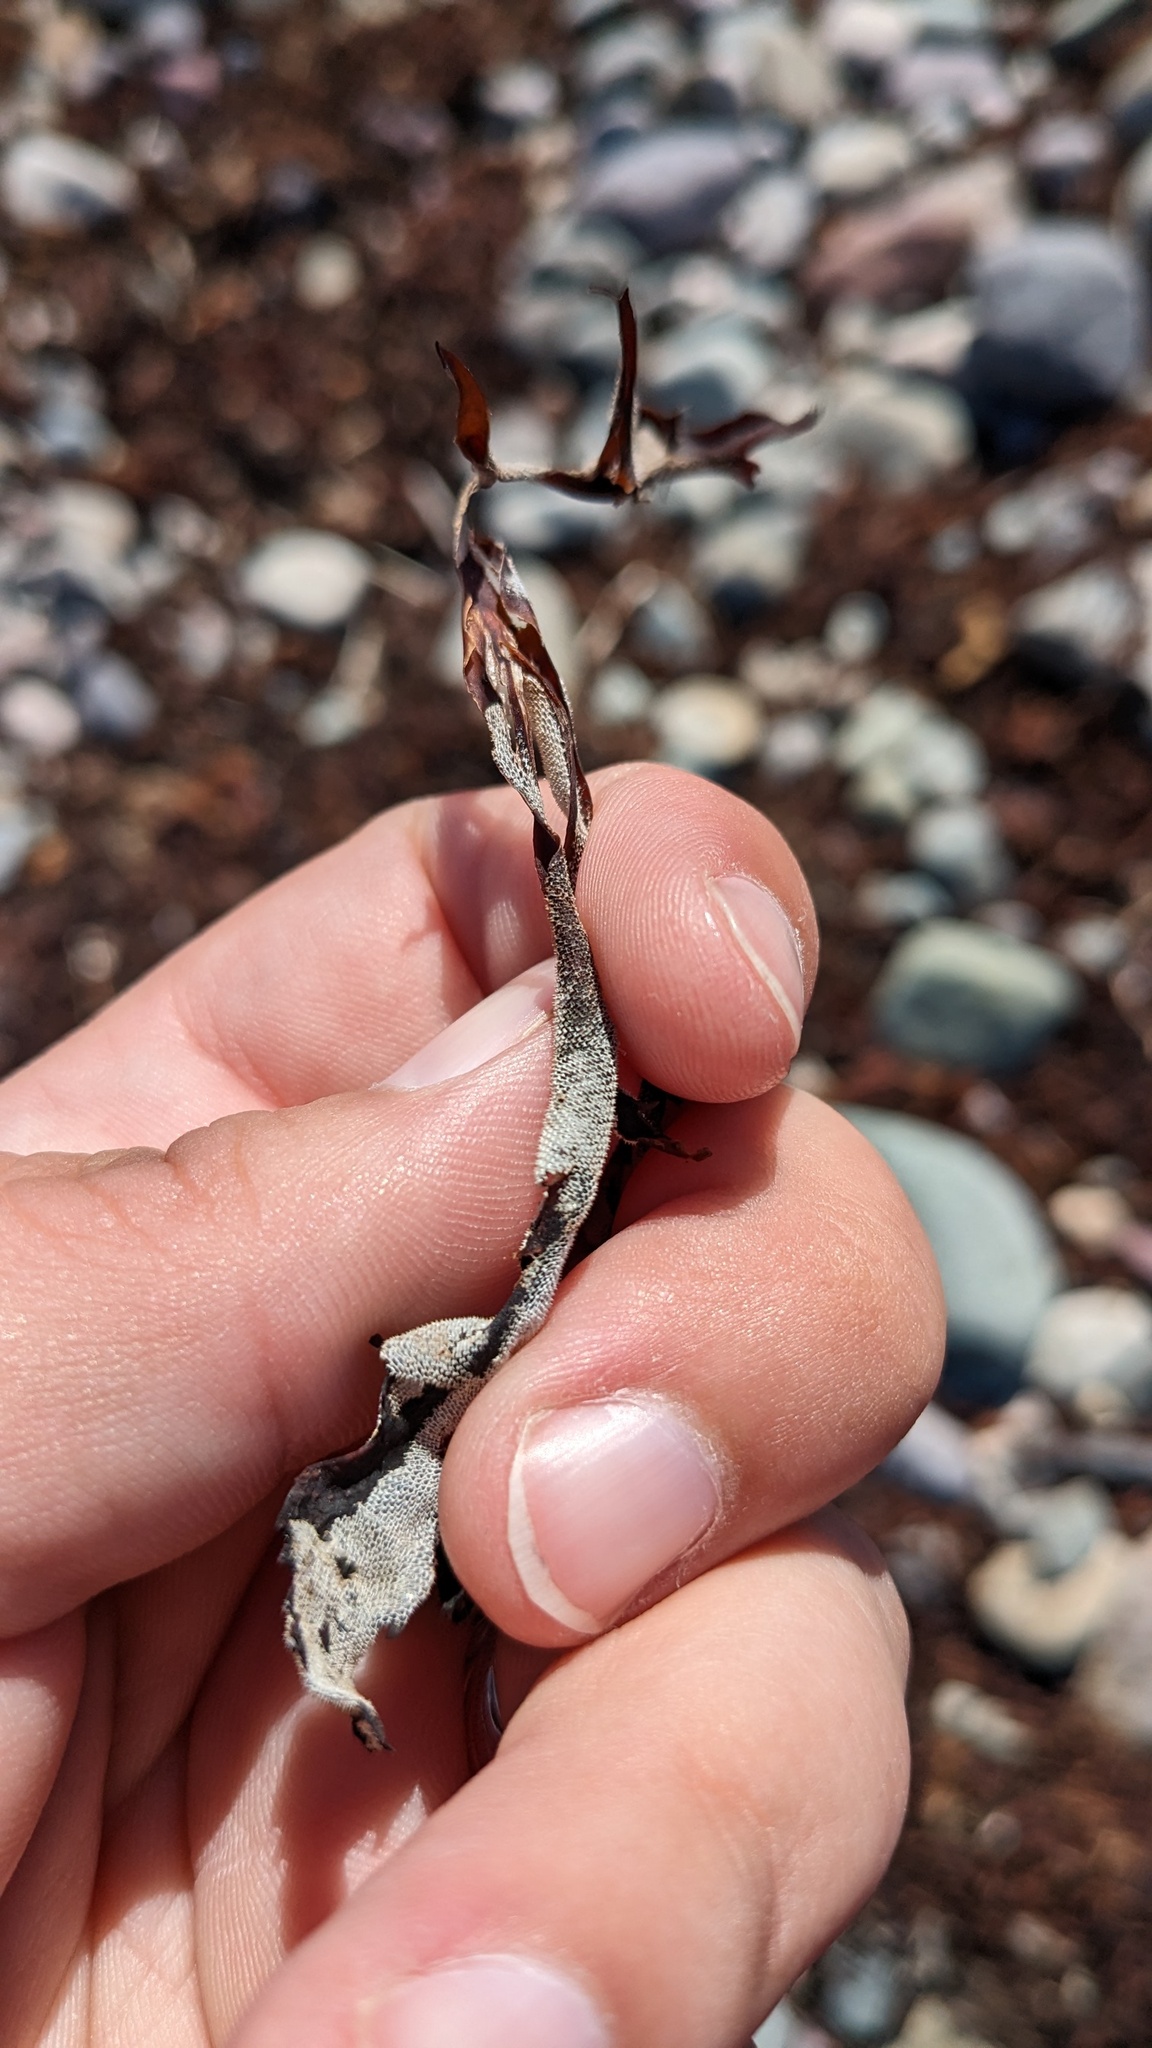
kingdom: Animalia
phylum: Bryozoa
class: Gymnolaemata
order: Cheilostomatida
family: Membraniporidae
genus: Membranipora
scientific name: Membranipora membranacea
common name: Sea mat
